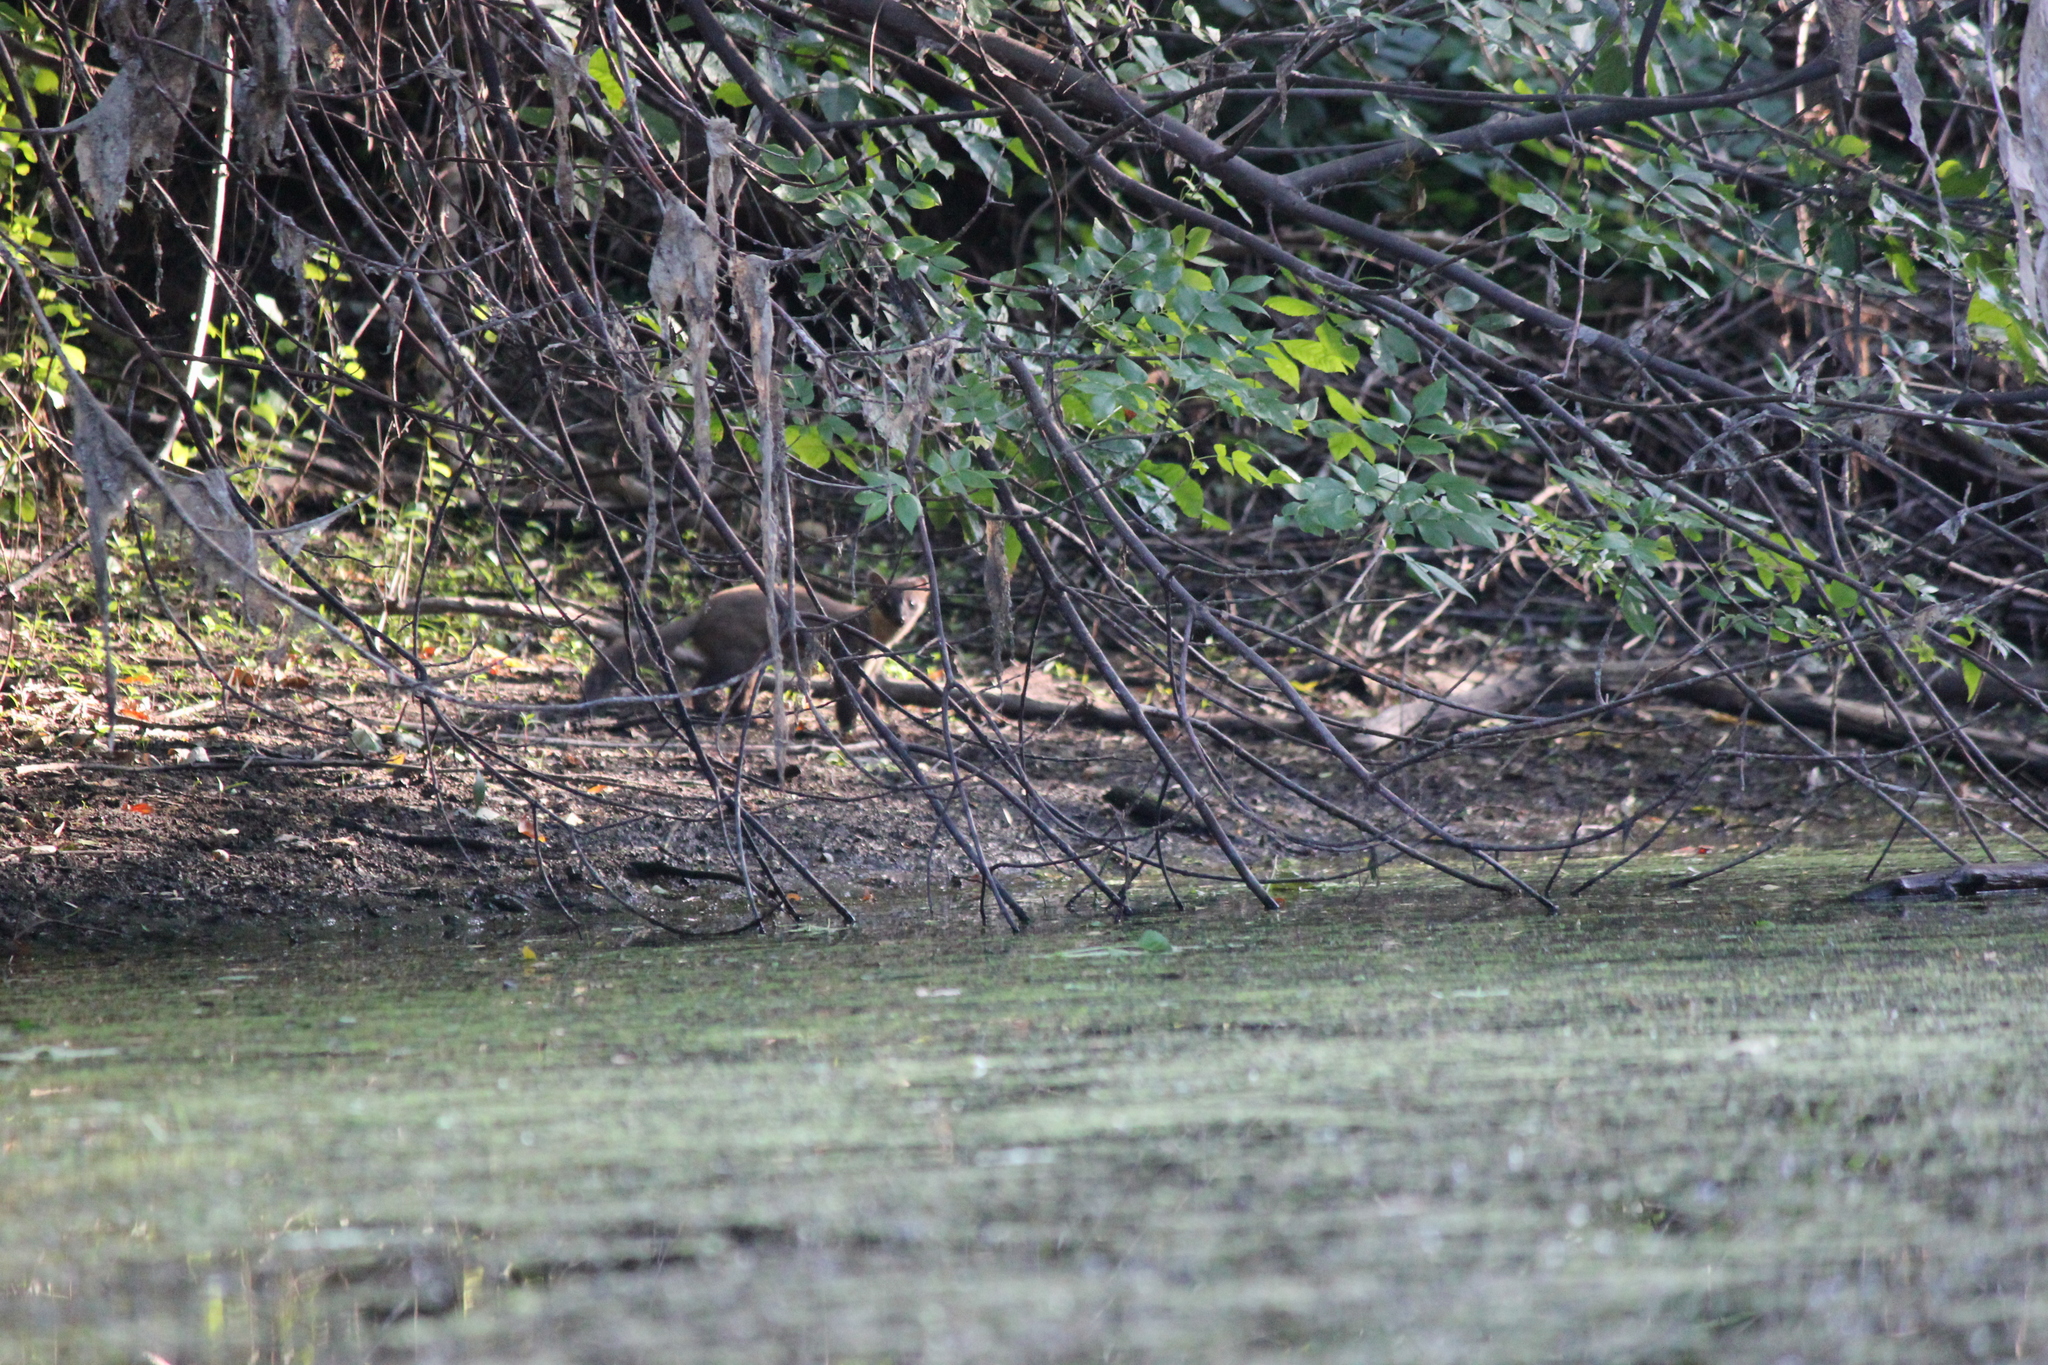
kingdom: Animalia
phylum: Chordata
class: Mammalia
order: Carnivora
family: Mustelidae
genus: Martes
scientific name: Martes martes
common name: European pine marten
